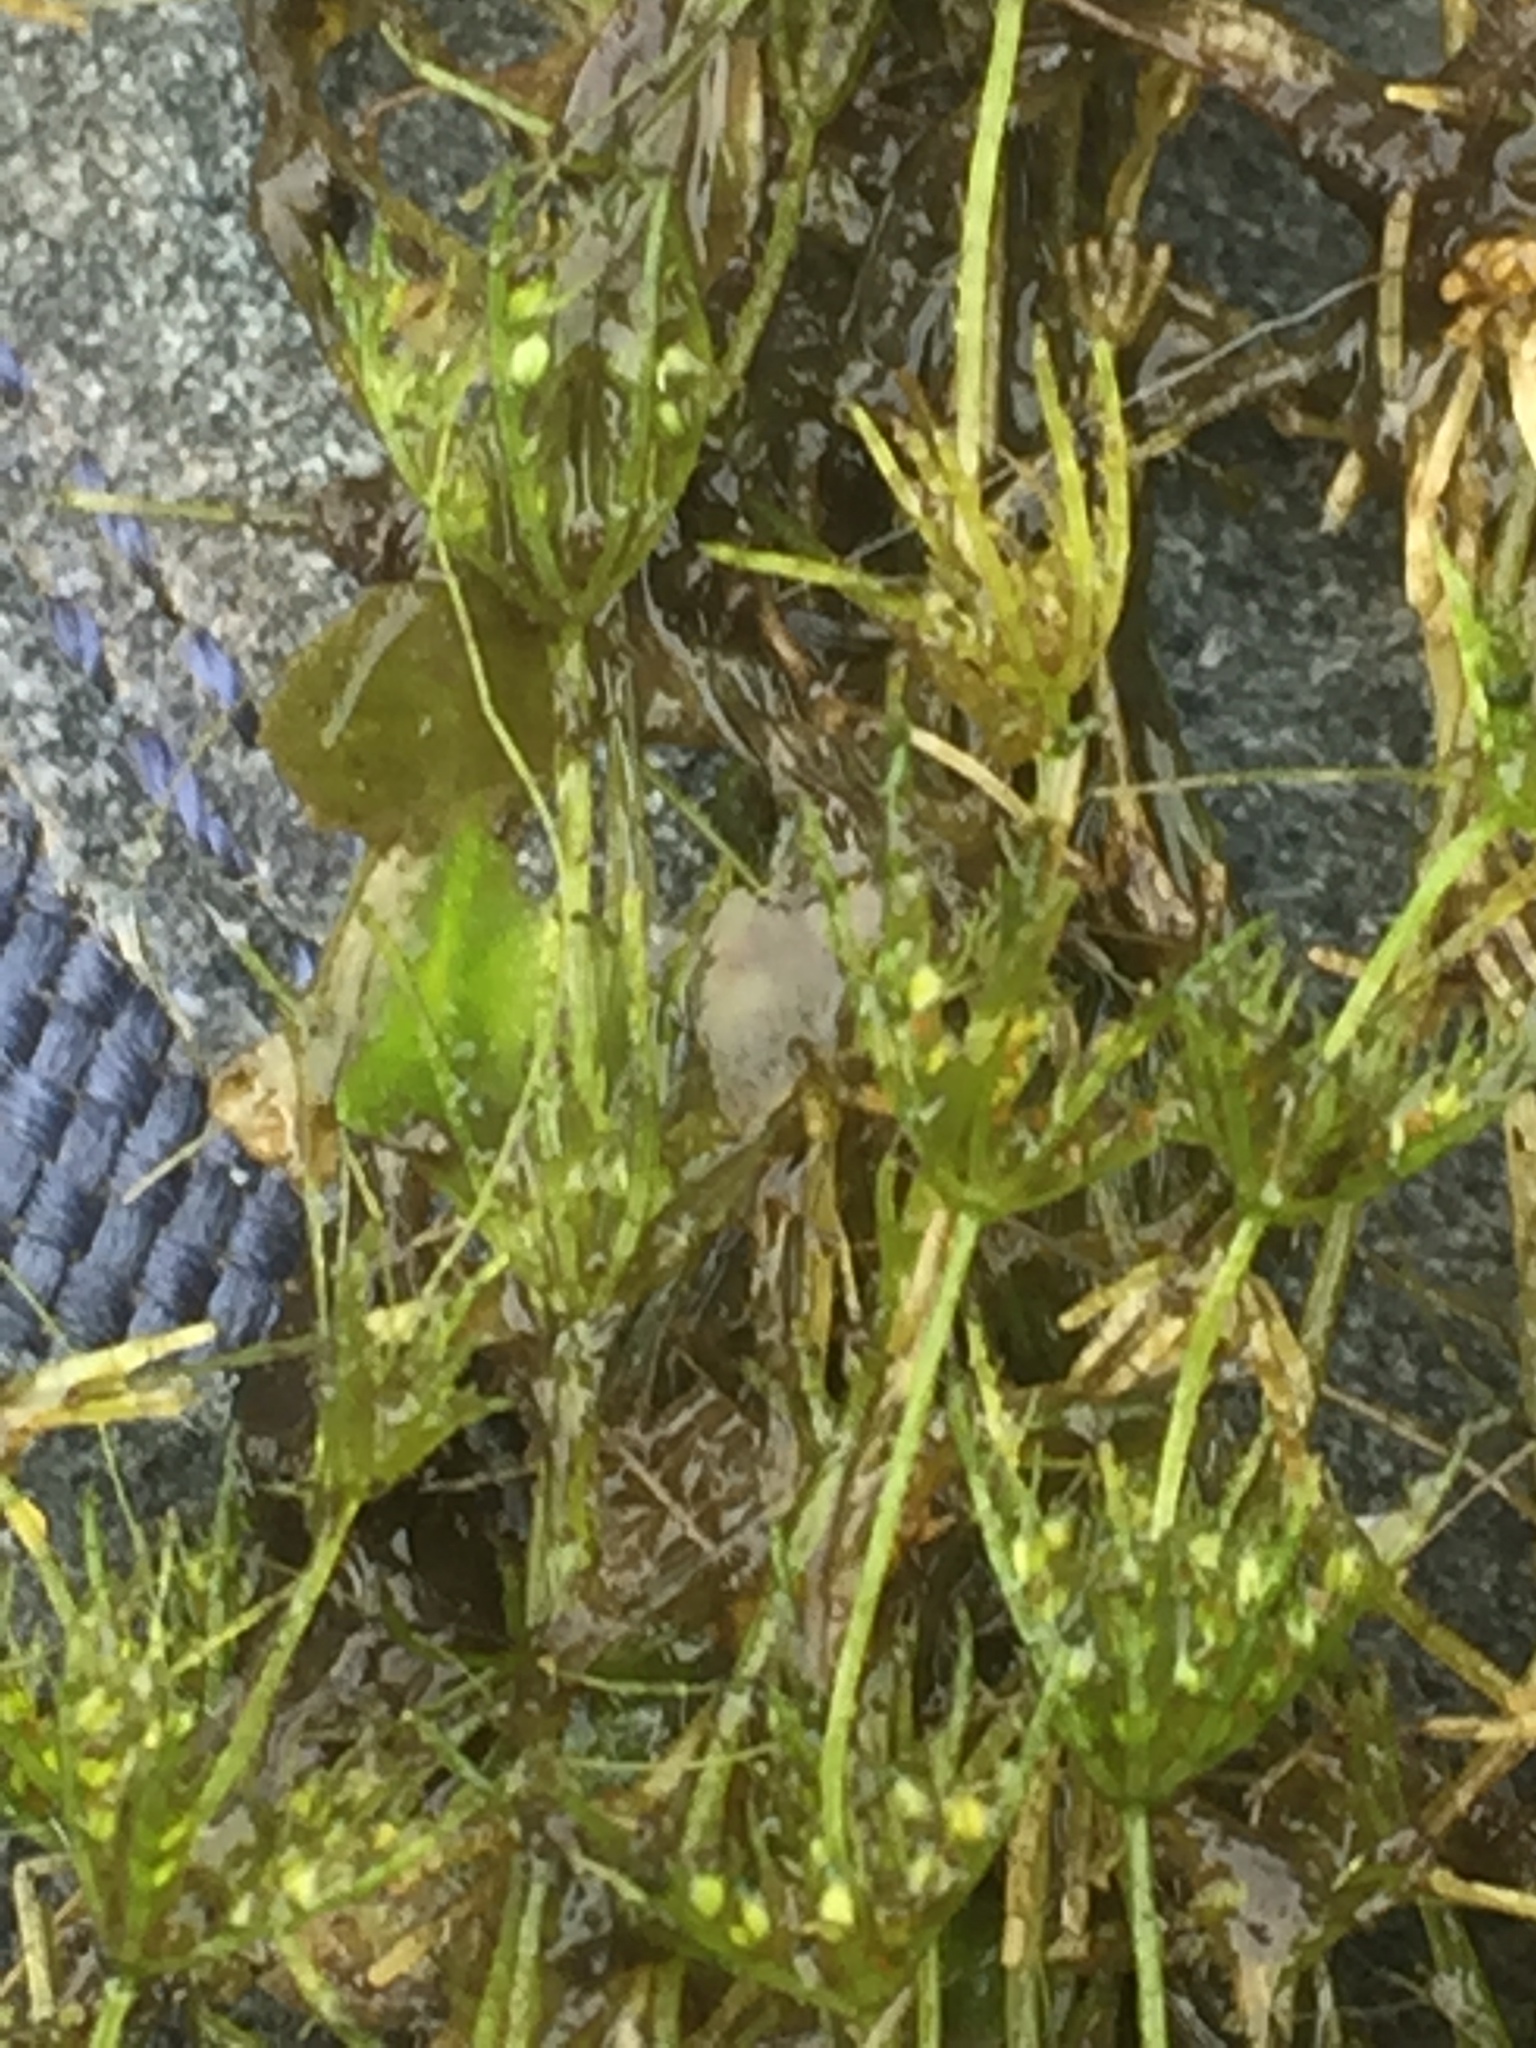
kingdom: Plantae
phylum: Charophyta
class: Charophyceae
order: Charales
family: Characeae
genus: Chara
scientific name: Chara virgata
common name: Delicate stonewort
